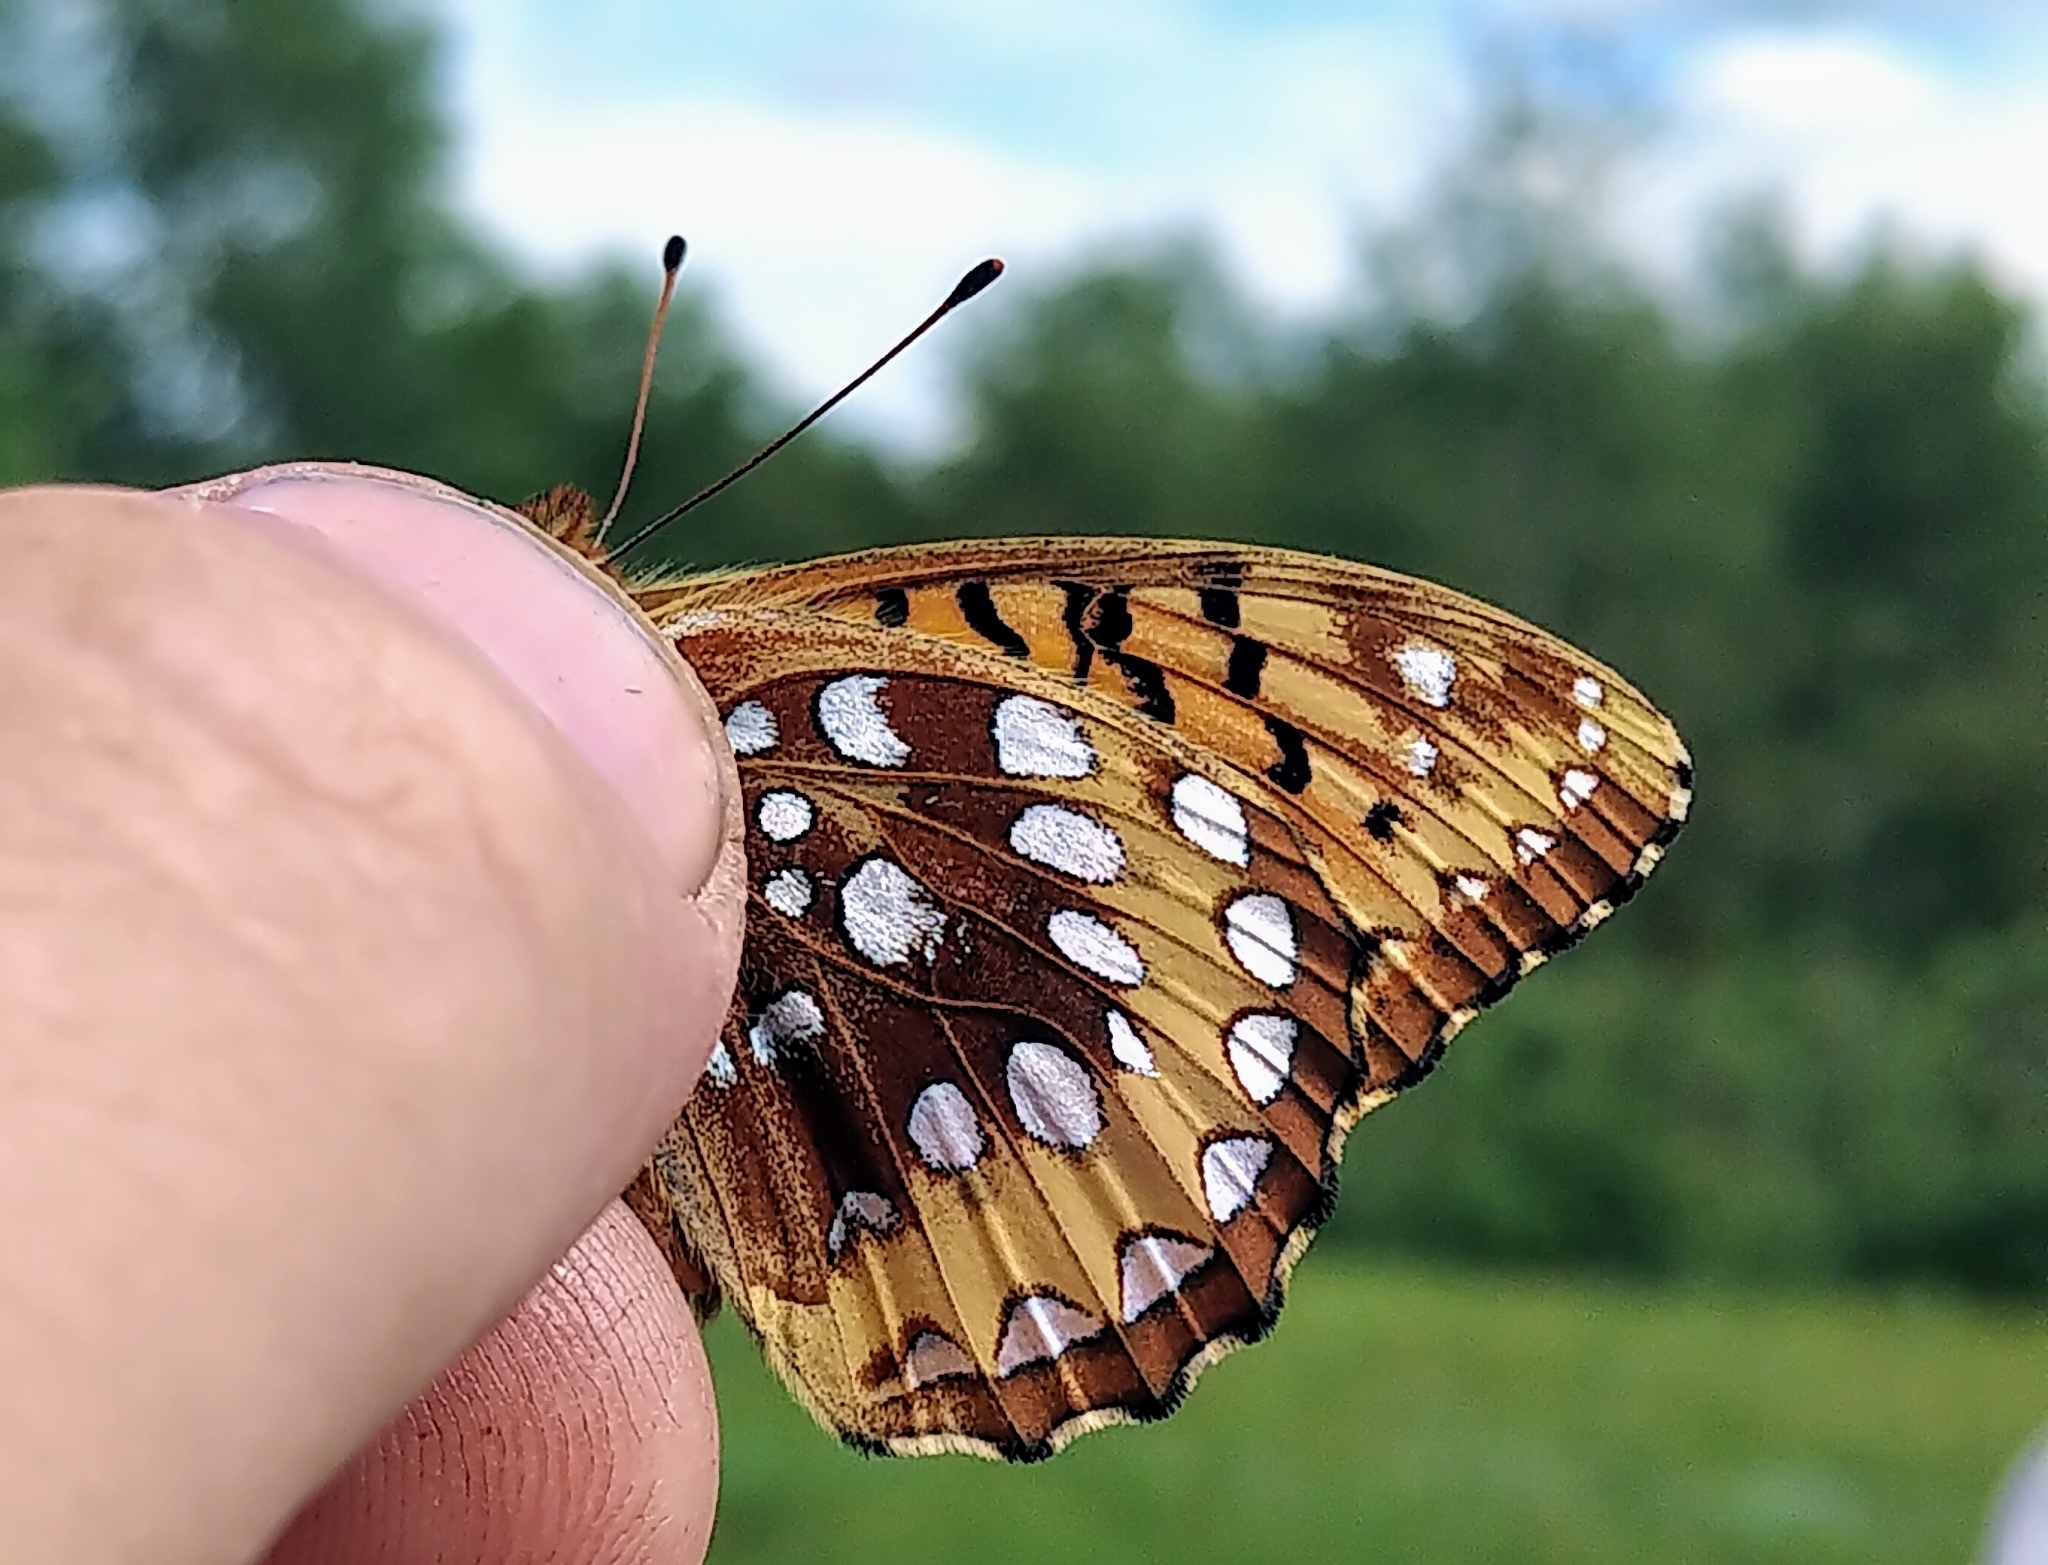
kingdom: Animalia
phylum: Arthropoda
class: Insecta
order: Lepidoptera
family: Nymphalidae
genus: Speyeria
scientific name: Speyeria cybele
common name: Great spangled fritillary
